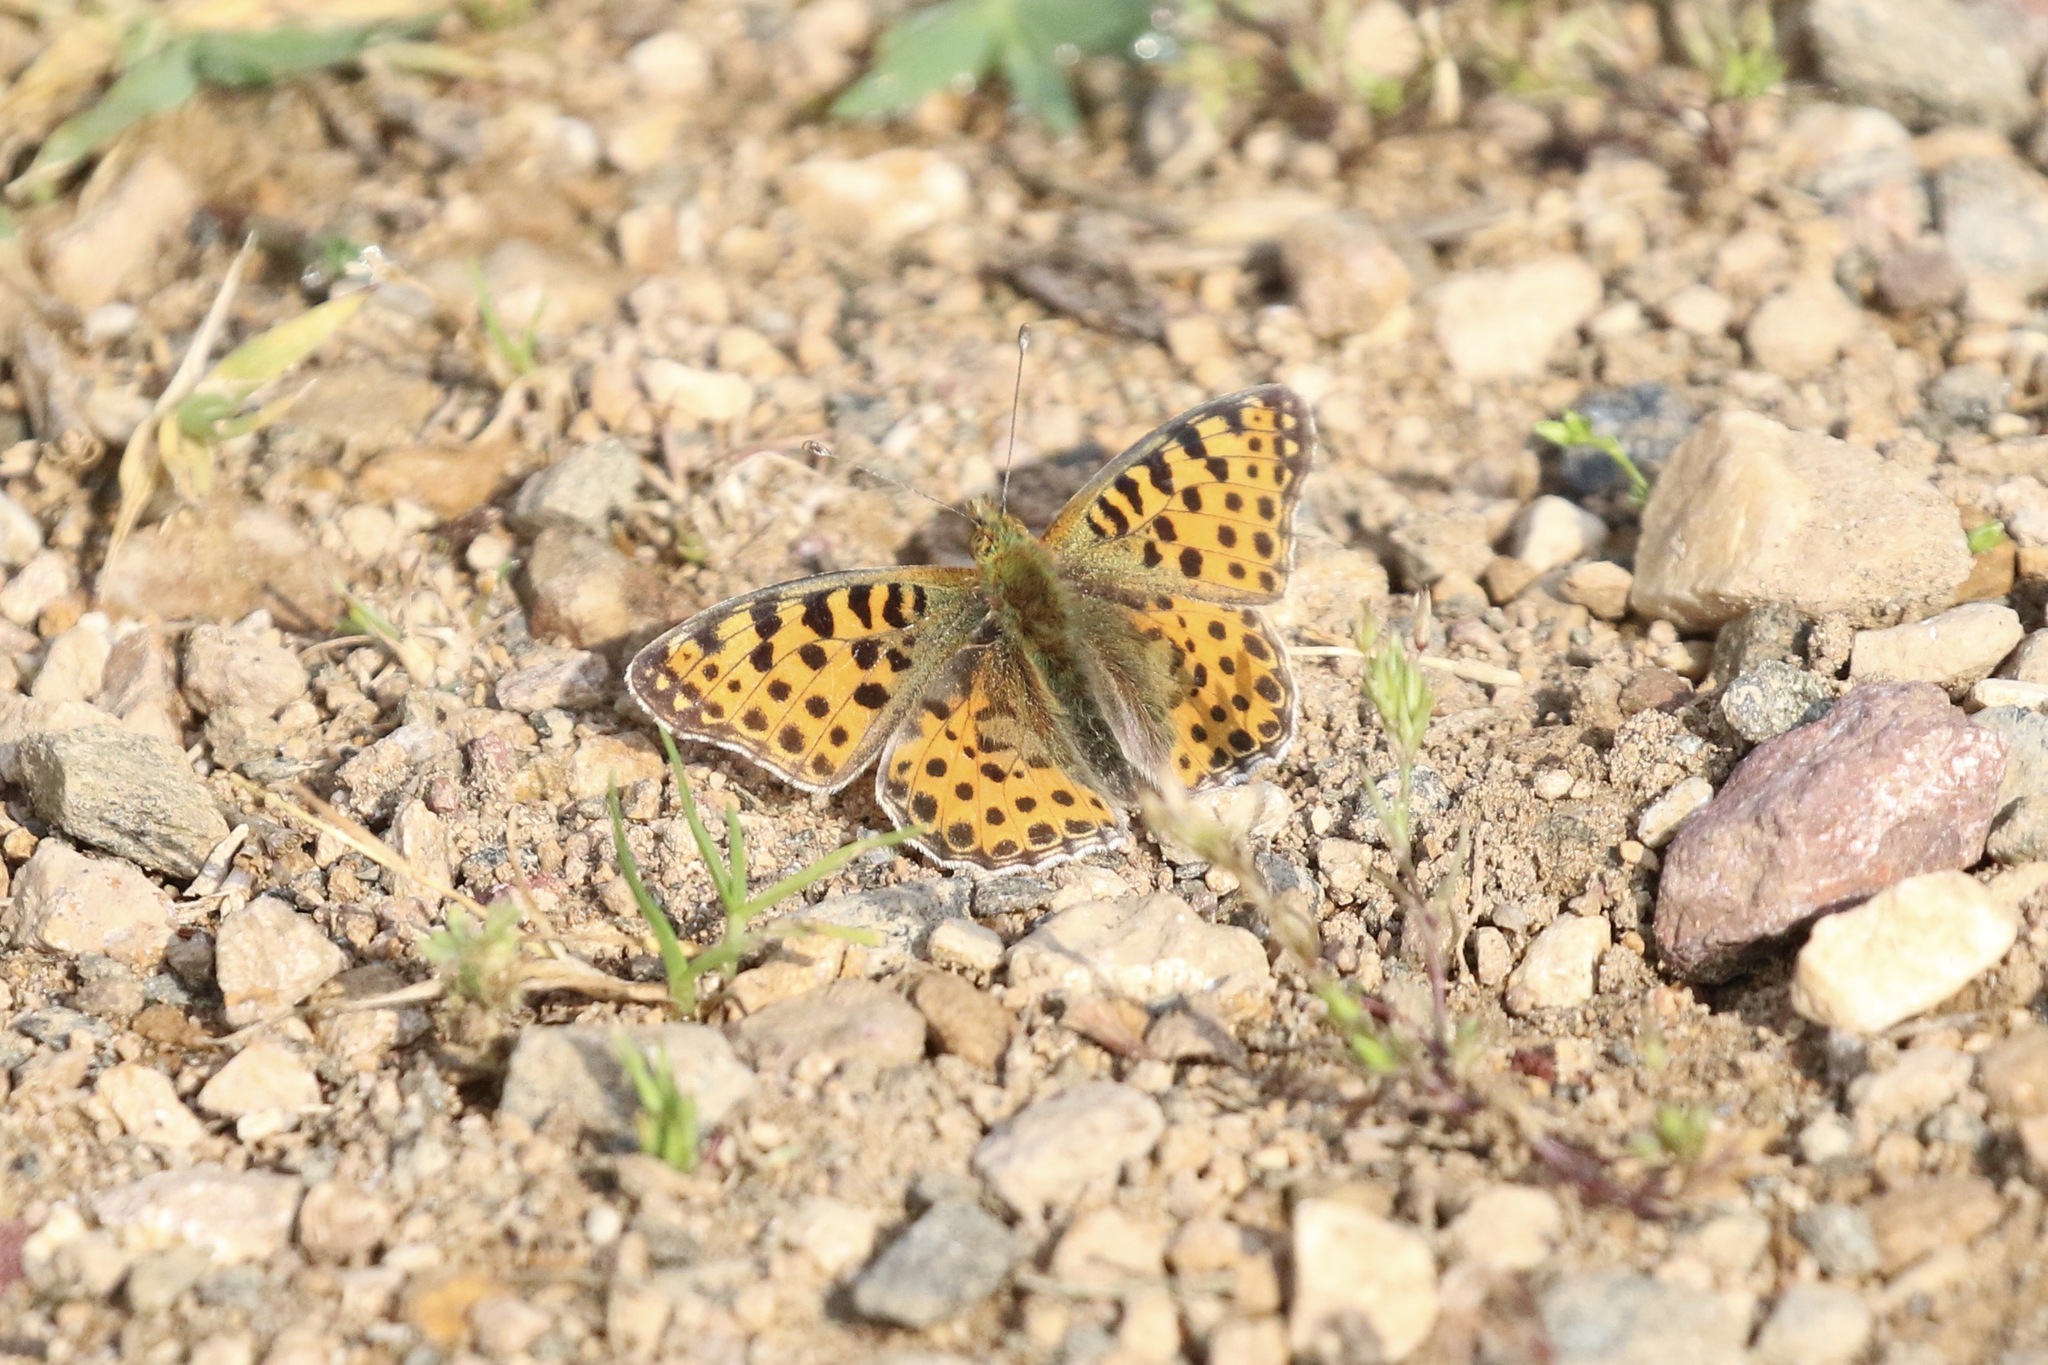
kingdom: Animalia
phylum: Arthropoda
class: Insecta
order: Lepidoptera
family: Nymphalidae
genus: Issoria
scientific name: Issoria lathonia
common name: Queen of spain fritillary
